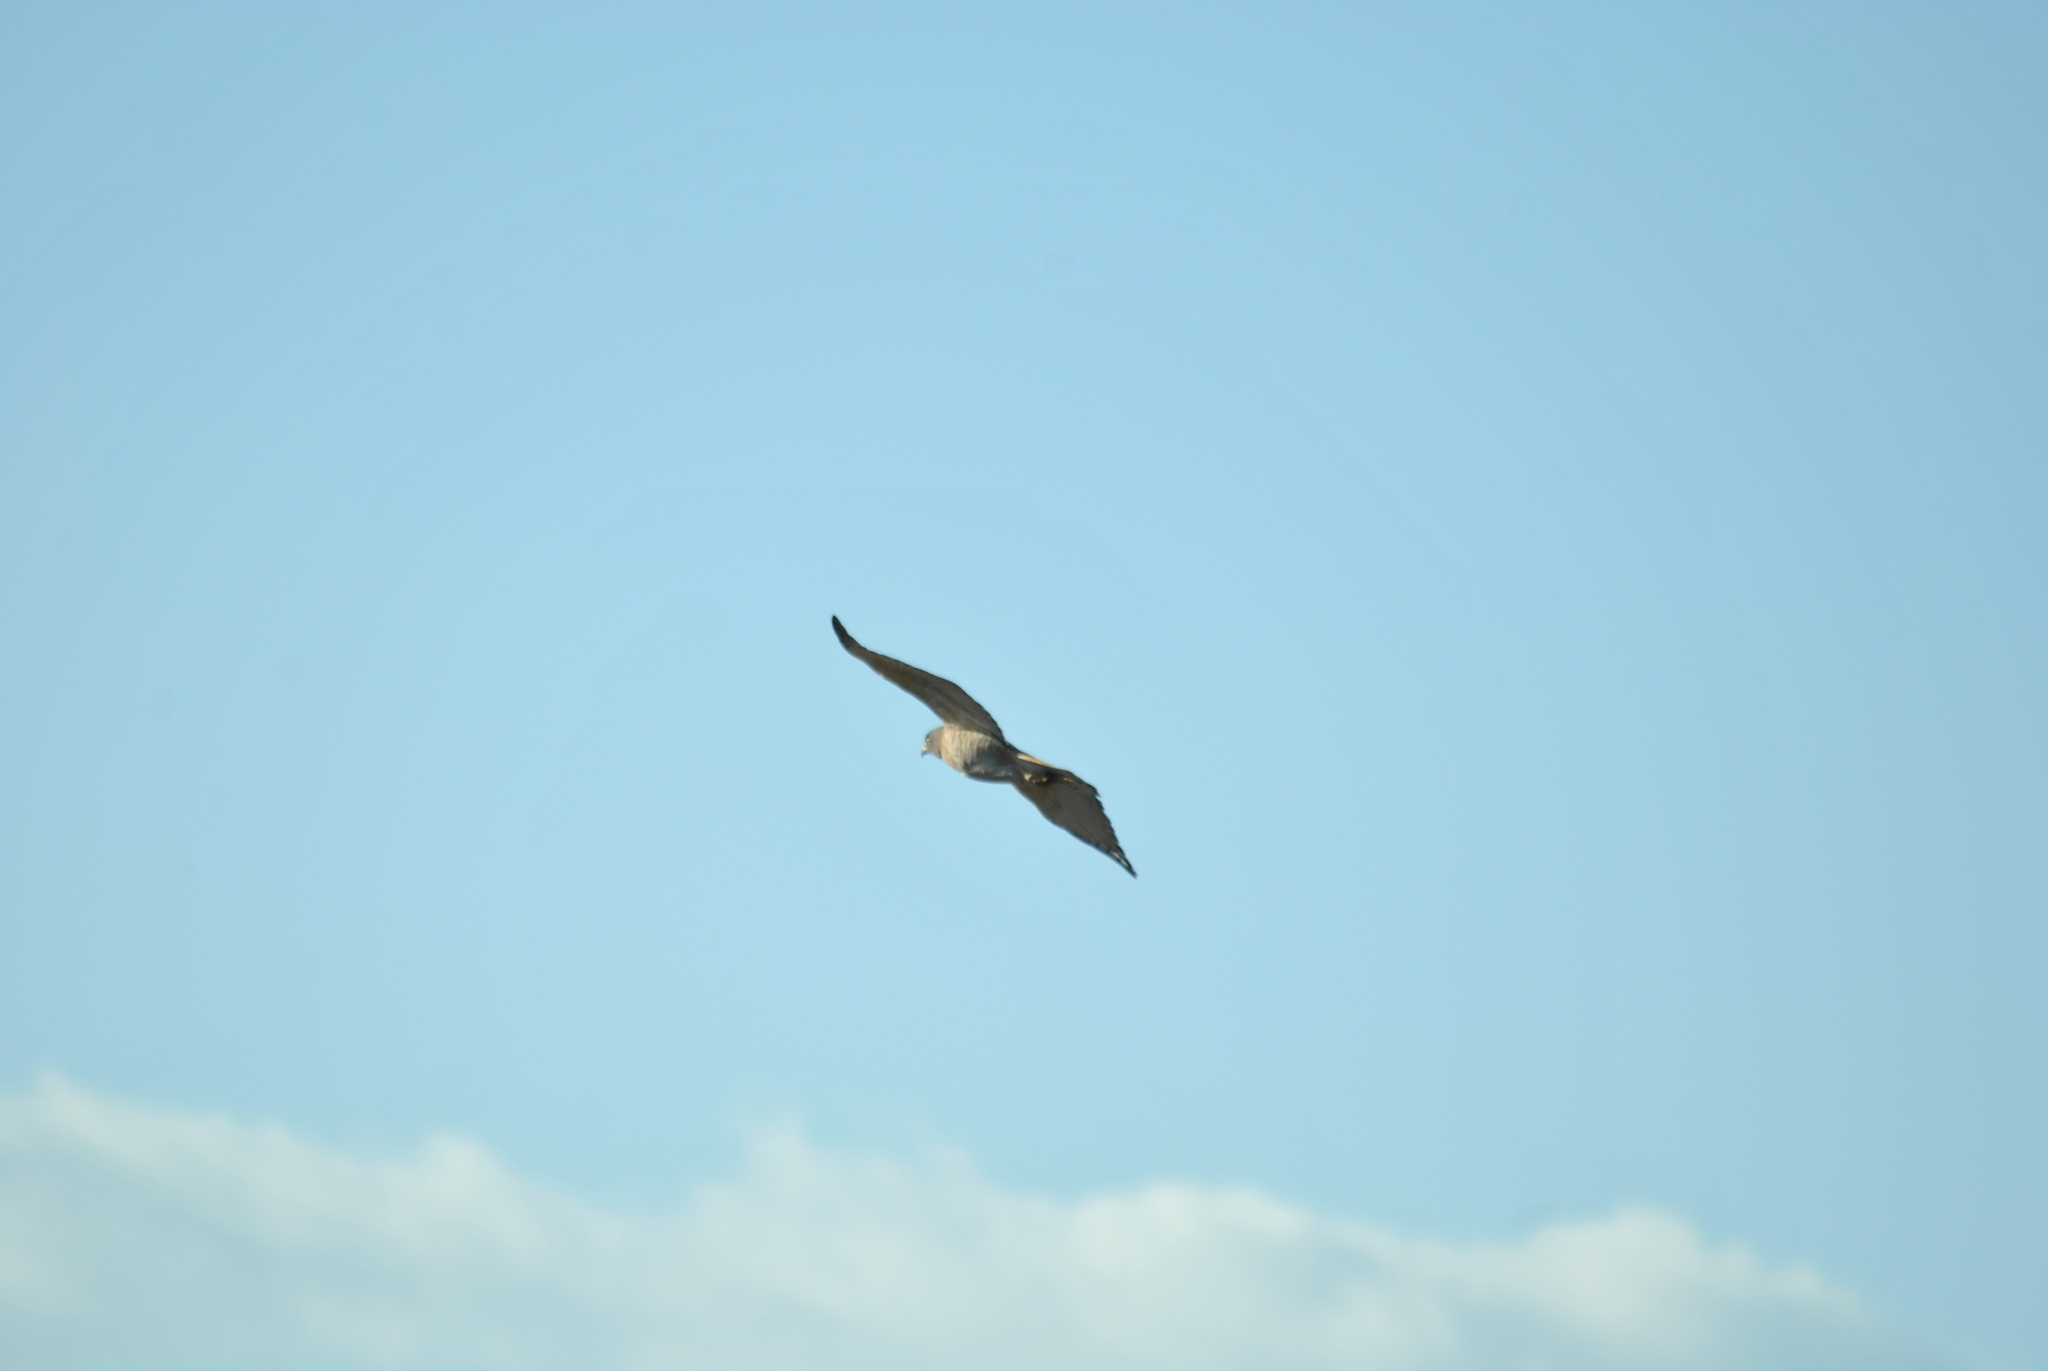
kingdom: Animalia
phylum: Chordata
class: Aves
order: Accipitriformes
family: Accipitridae
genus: Rupornis
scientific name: Rupornis magnirostris
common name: Roadside hawk
